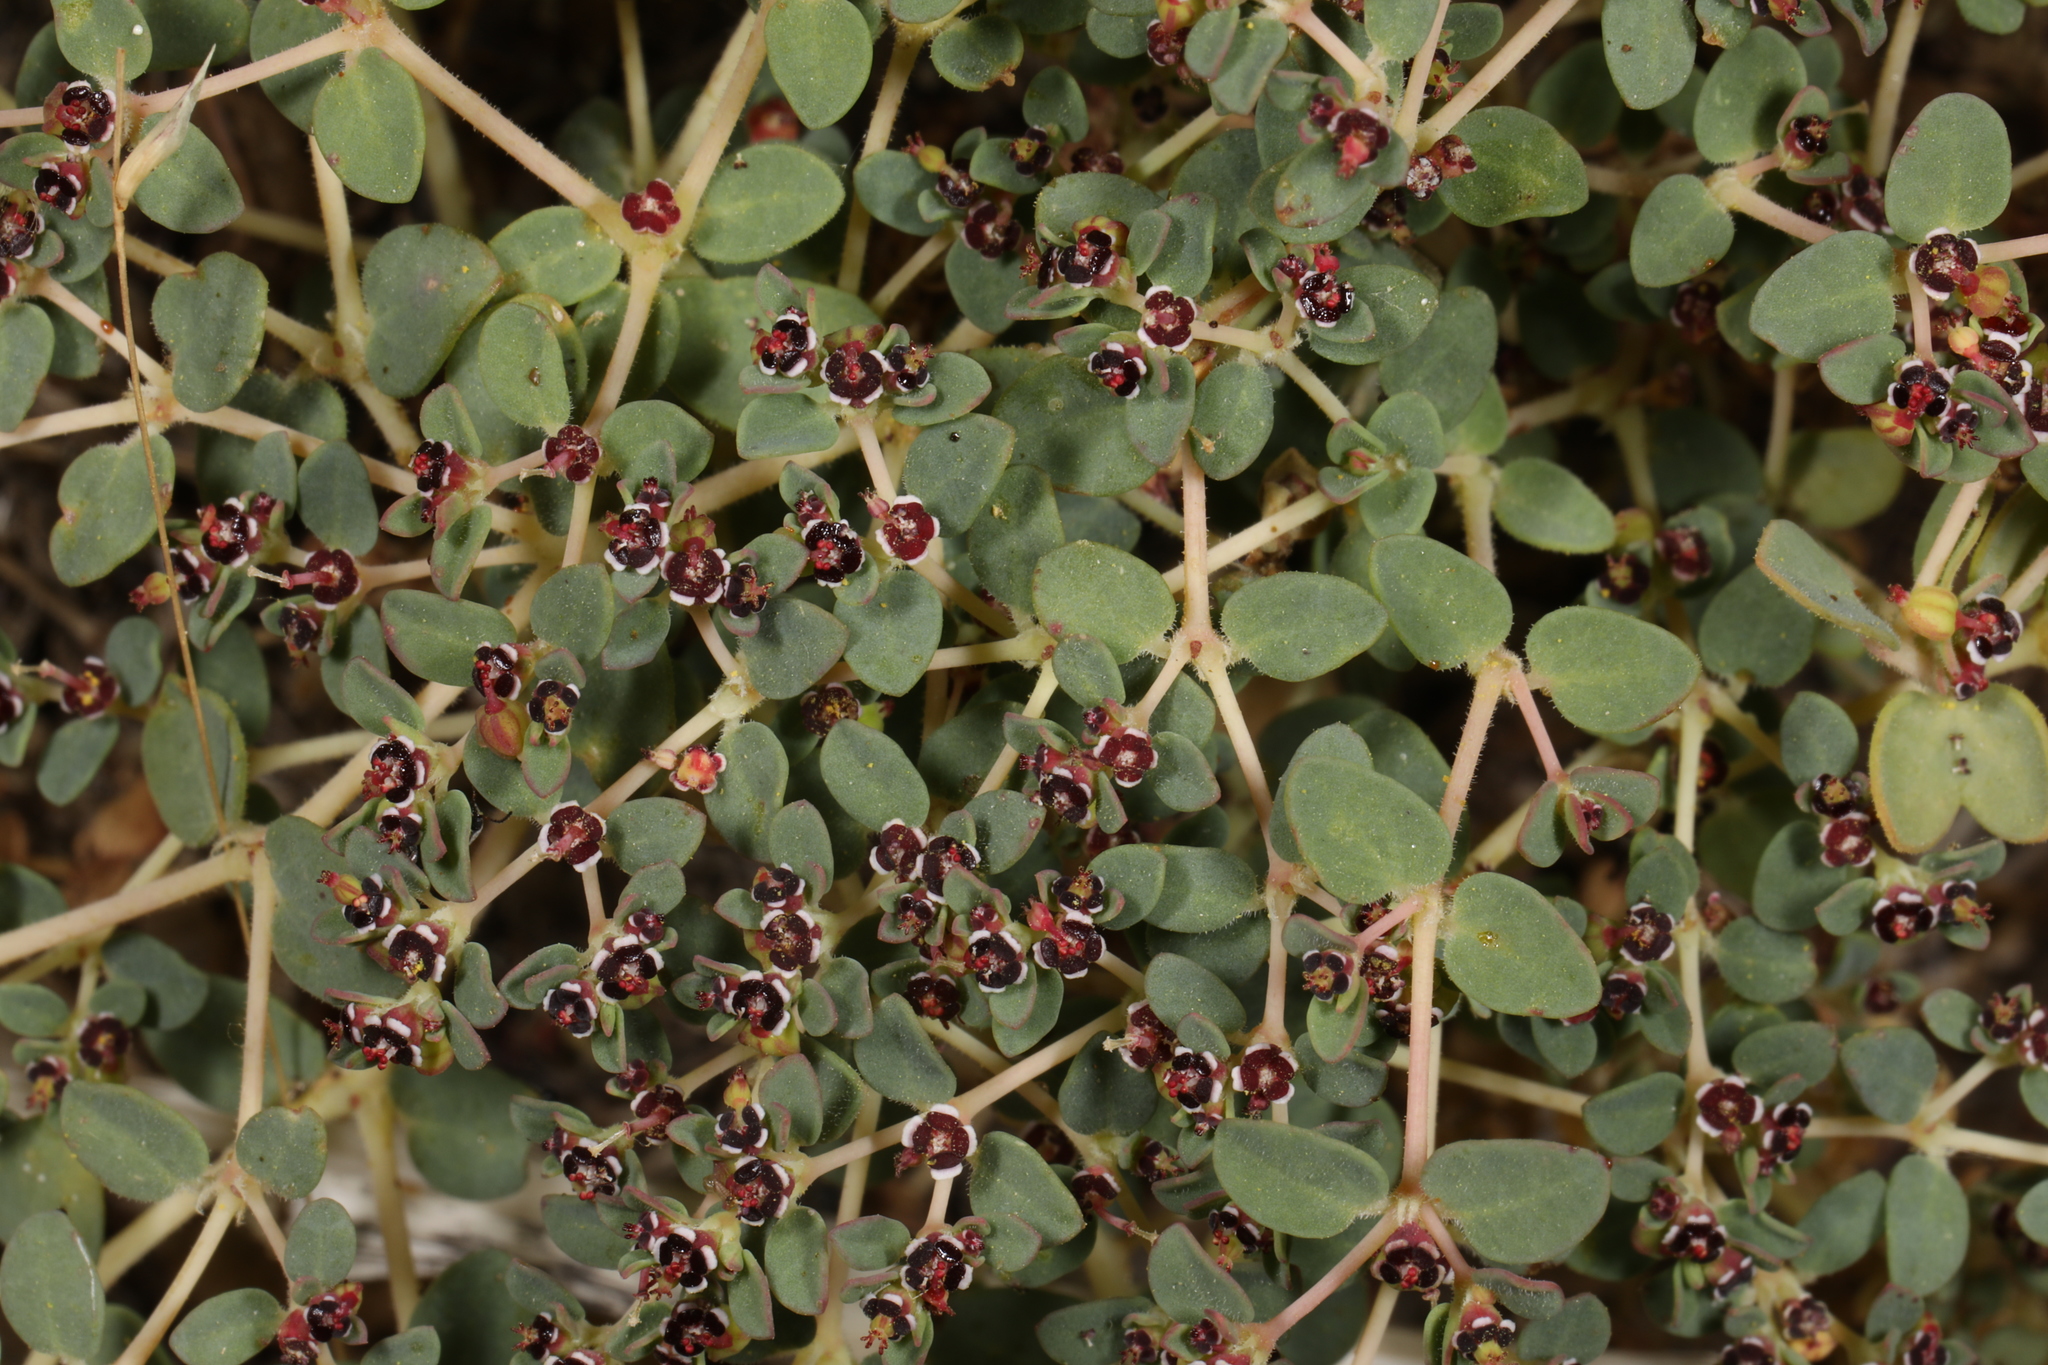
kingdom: Plantae
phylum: Tracheophyta
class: Magnoliopsida
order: Malpighiales
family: Euphorbiaceae
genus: Euphorbia
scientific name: Euphorbia polycarpa
